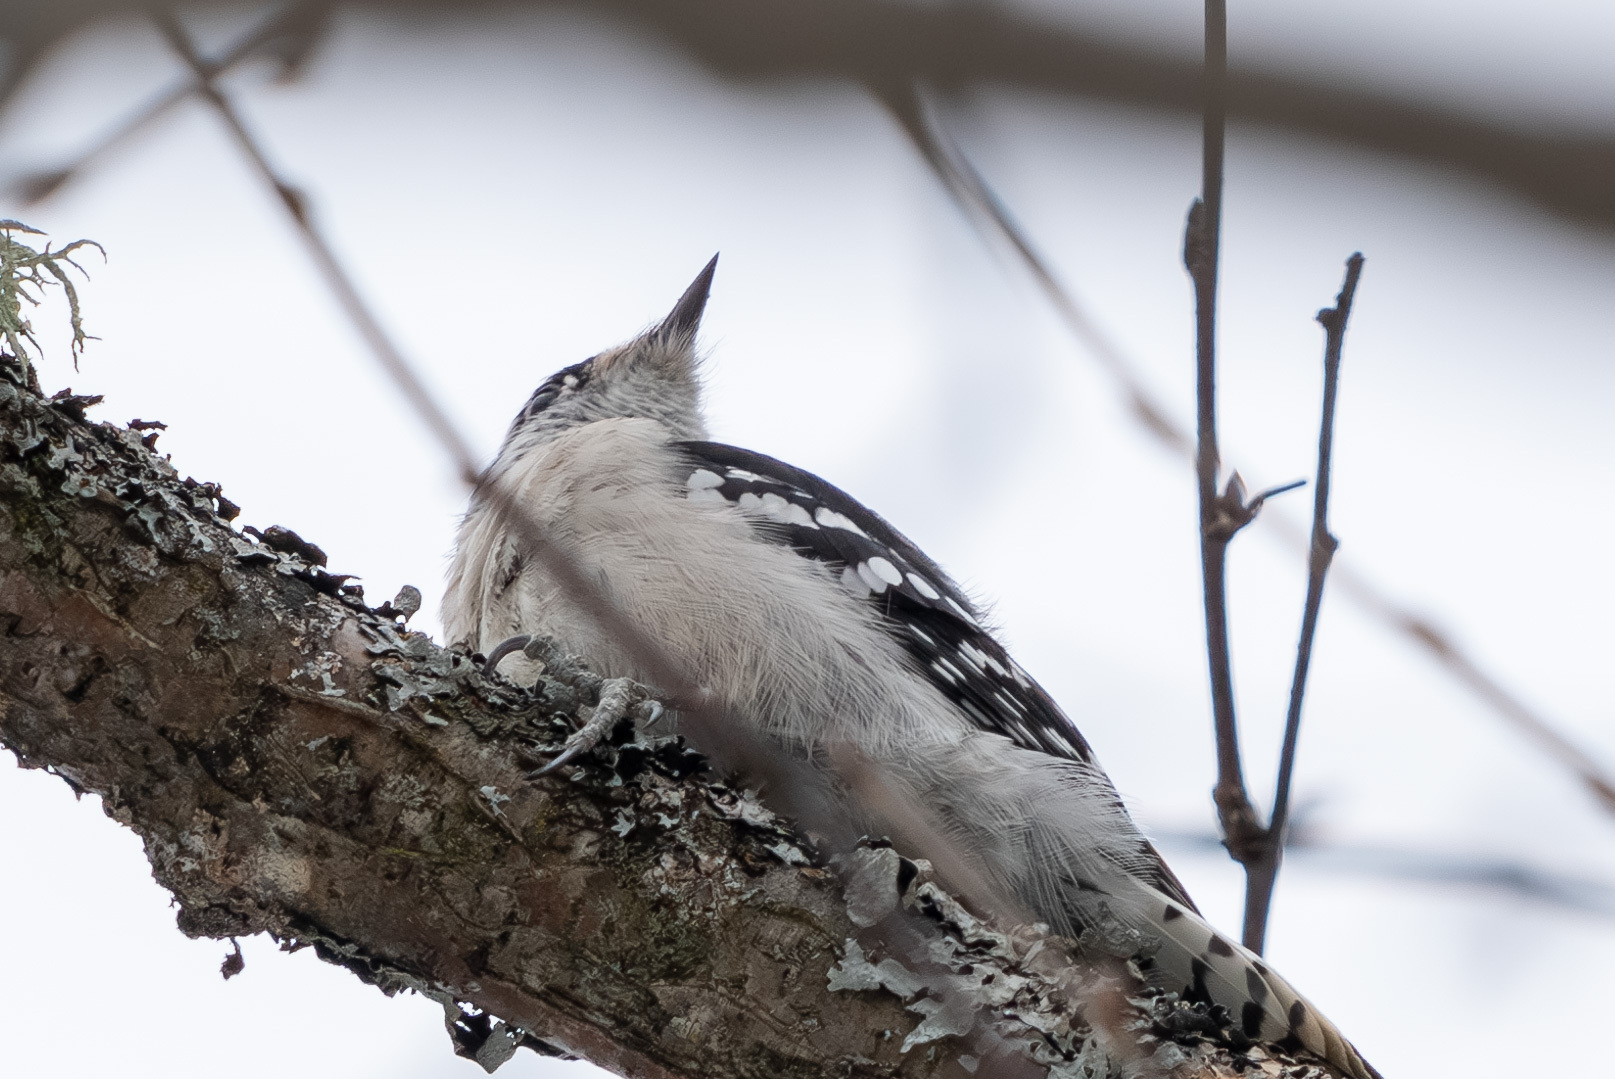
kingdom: Animalia
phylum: Chordata
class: Aves
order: Piciformes
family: Picidae
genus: Dryobates
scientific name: Dryobates pubescens
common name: Downy woodpecker
